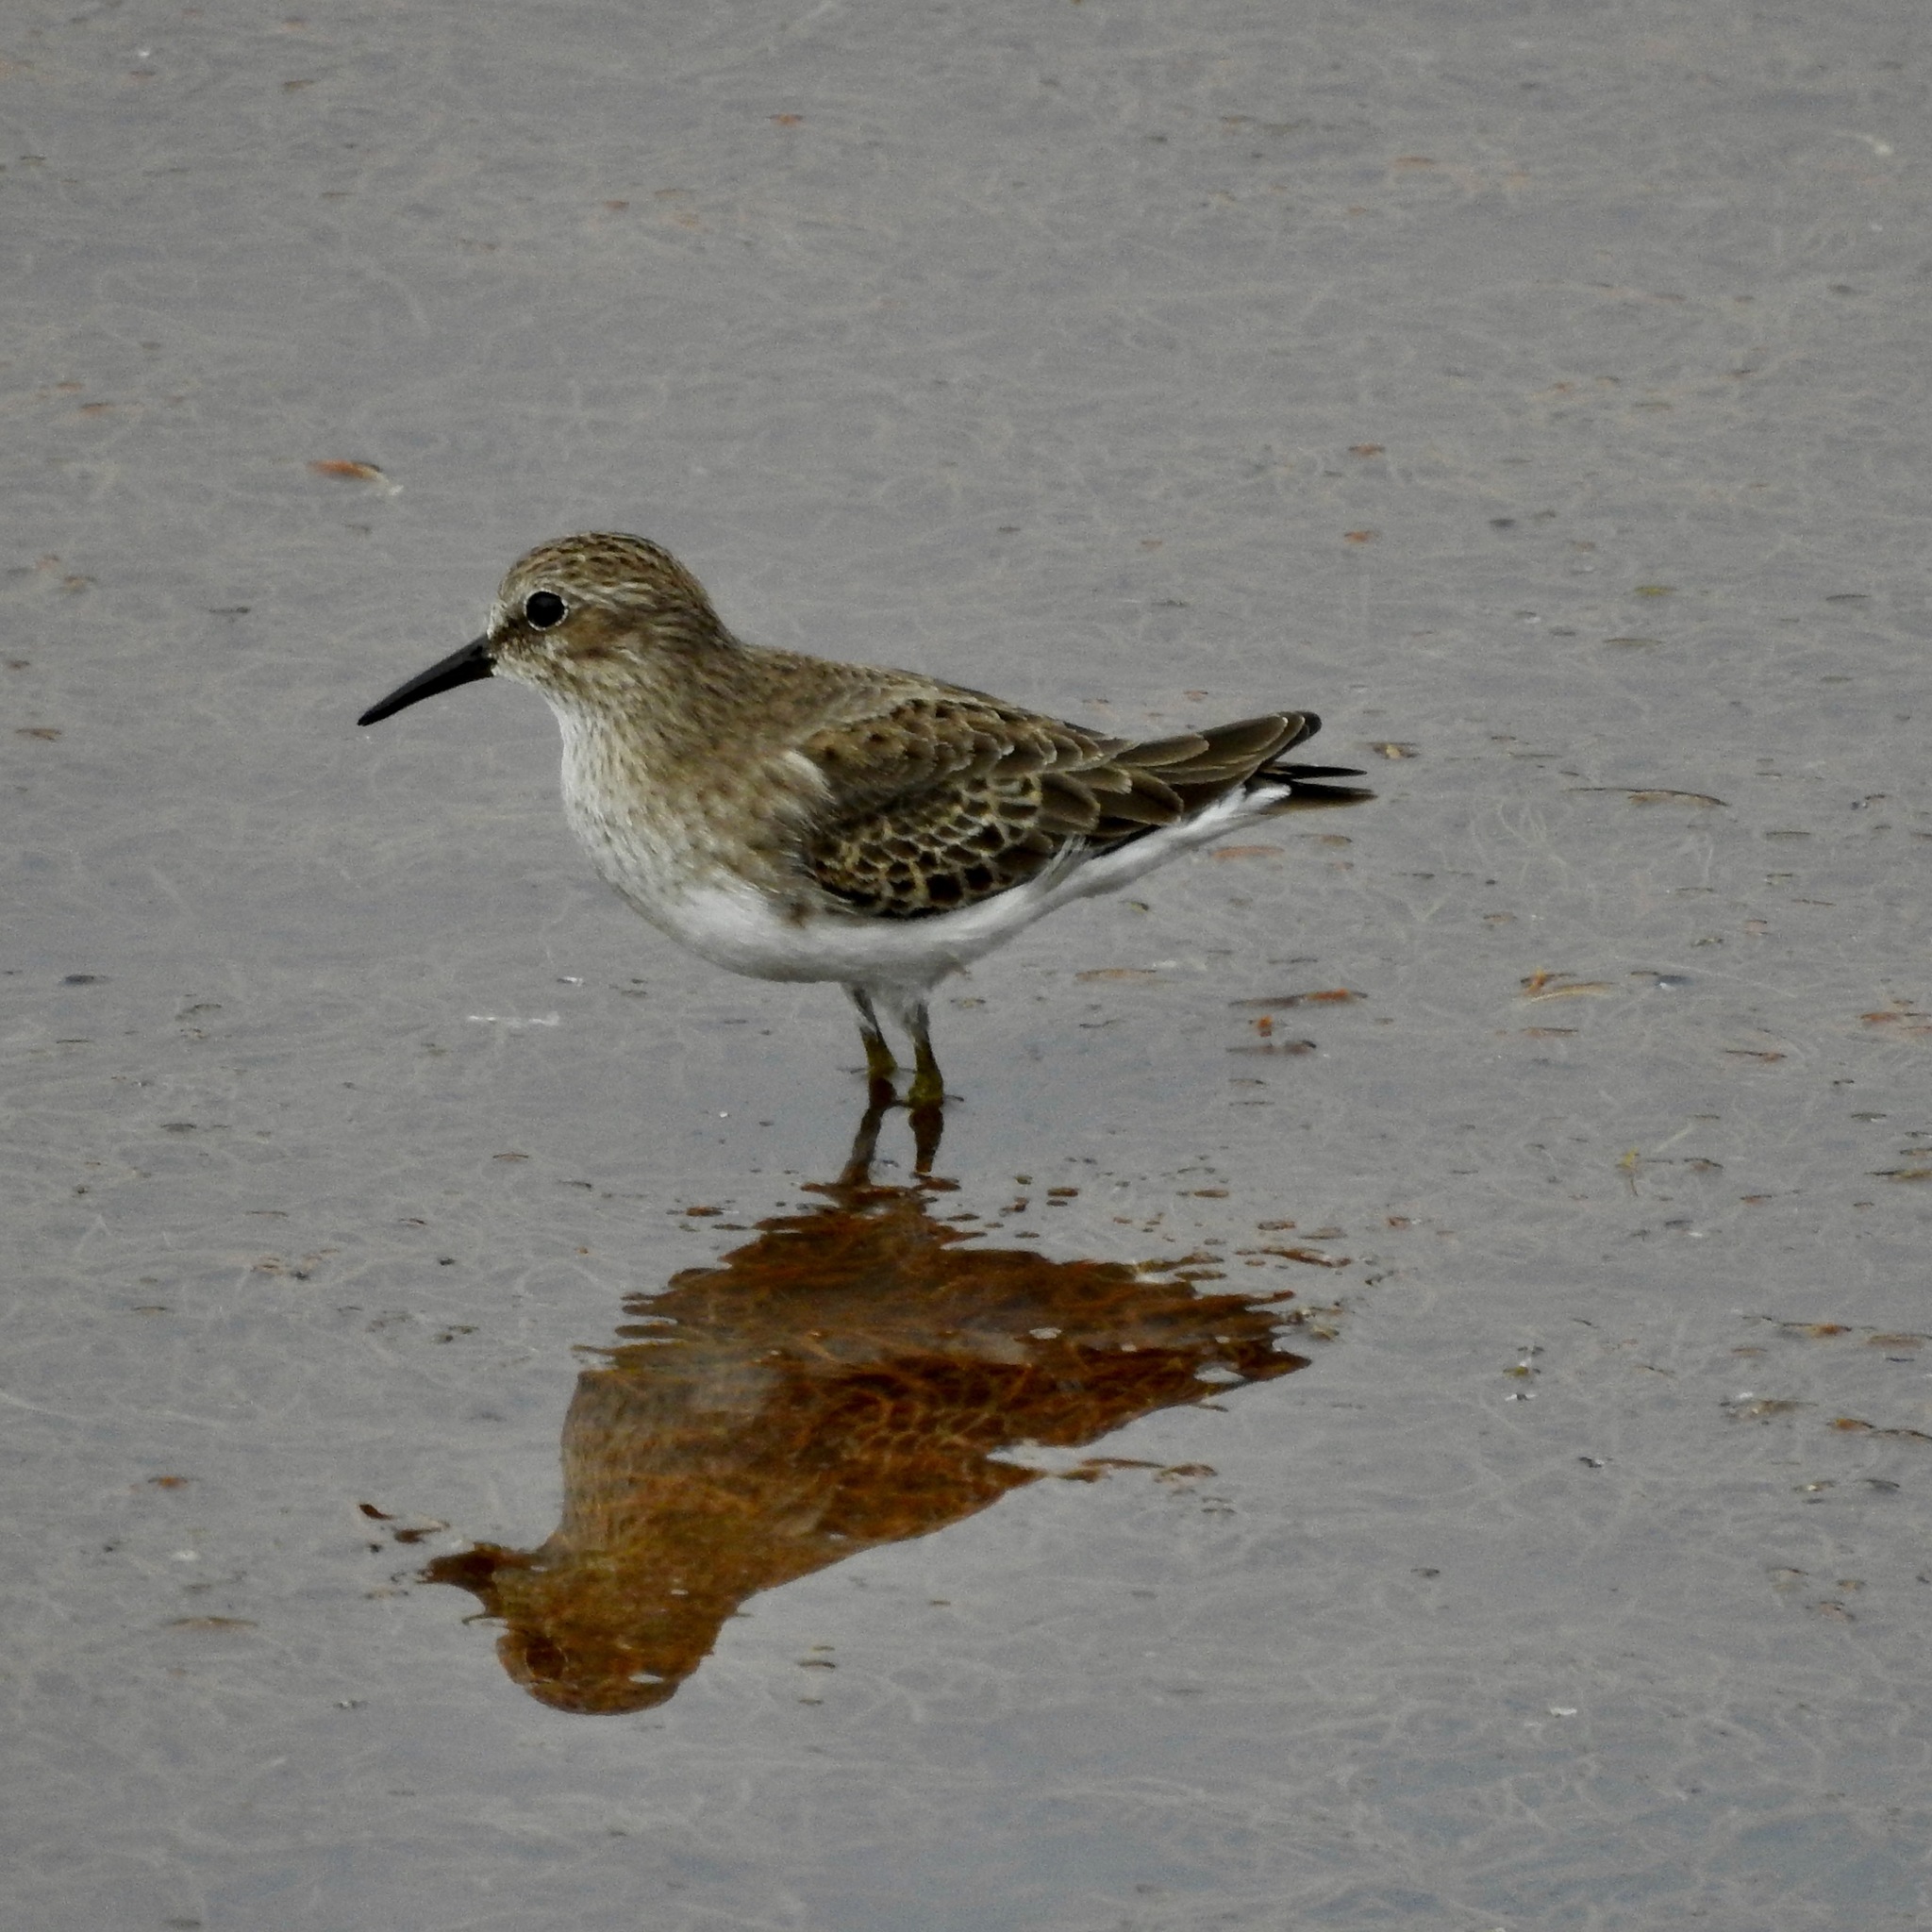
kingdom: Animalia
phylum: Chordata
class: Aves
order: Charadriiformes
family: Scolopacidae
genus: Calidris
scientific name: Calidris minutilla
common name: Least sandpiper
